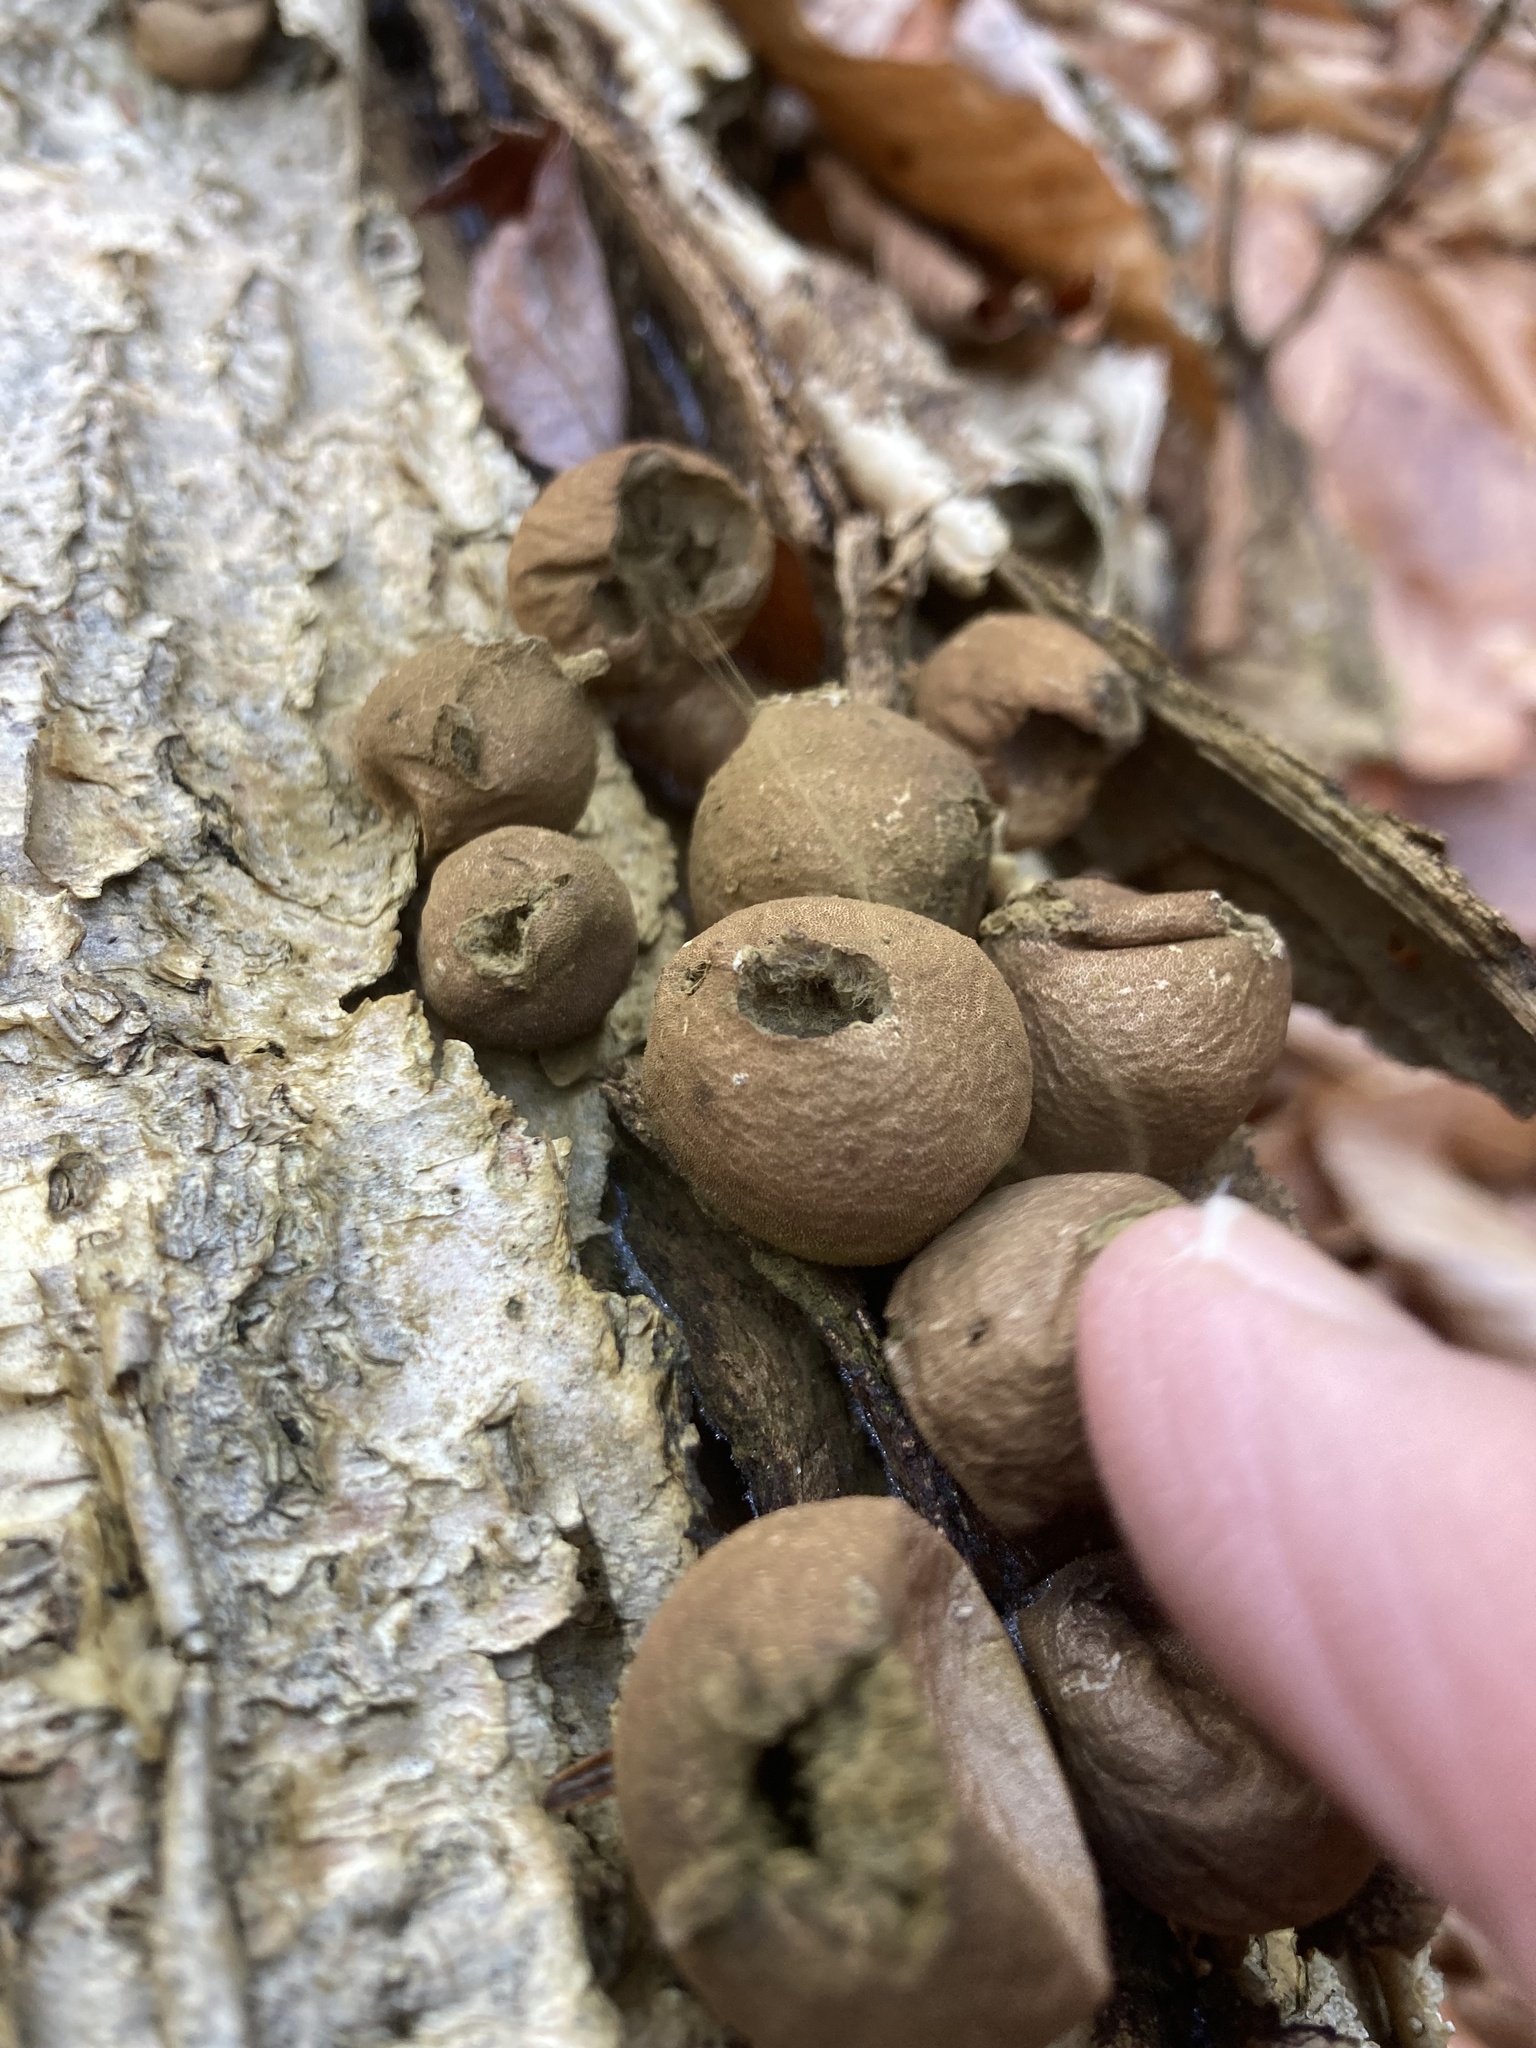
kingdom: Fungi
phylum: Basidiomycota
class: Agaricomycetes
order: Agaricales
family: Lycoperdaceae
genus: Apioperdon
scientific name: Apioperdon pyriforme
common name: Pear-shaped puffball
